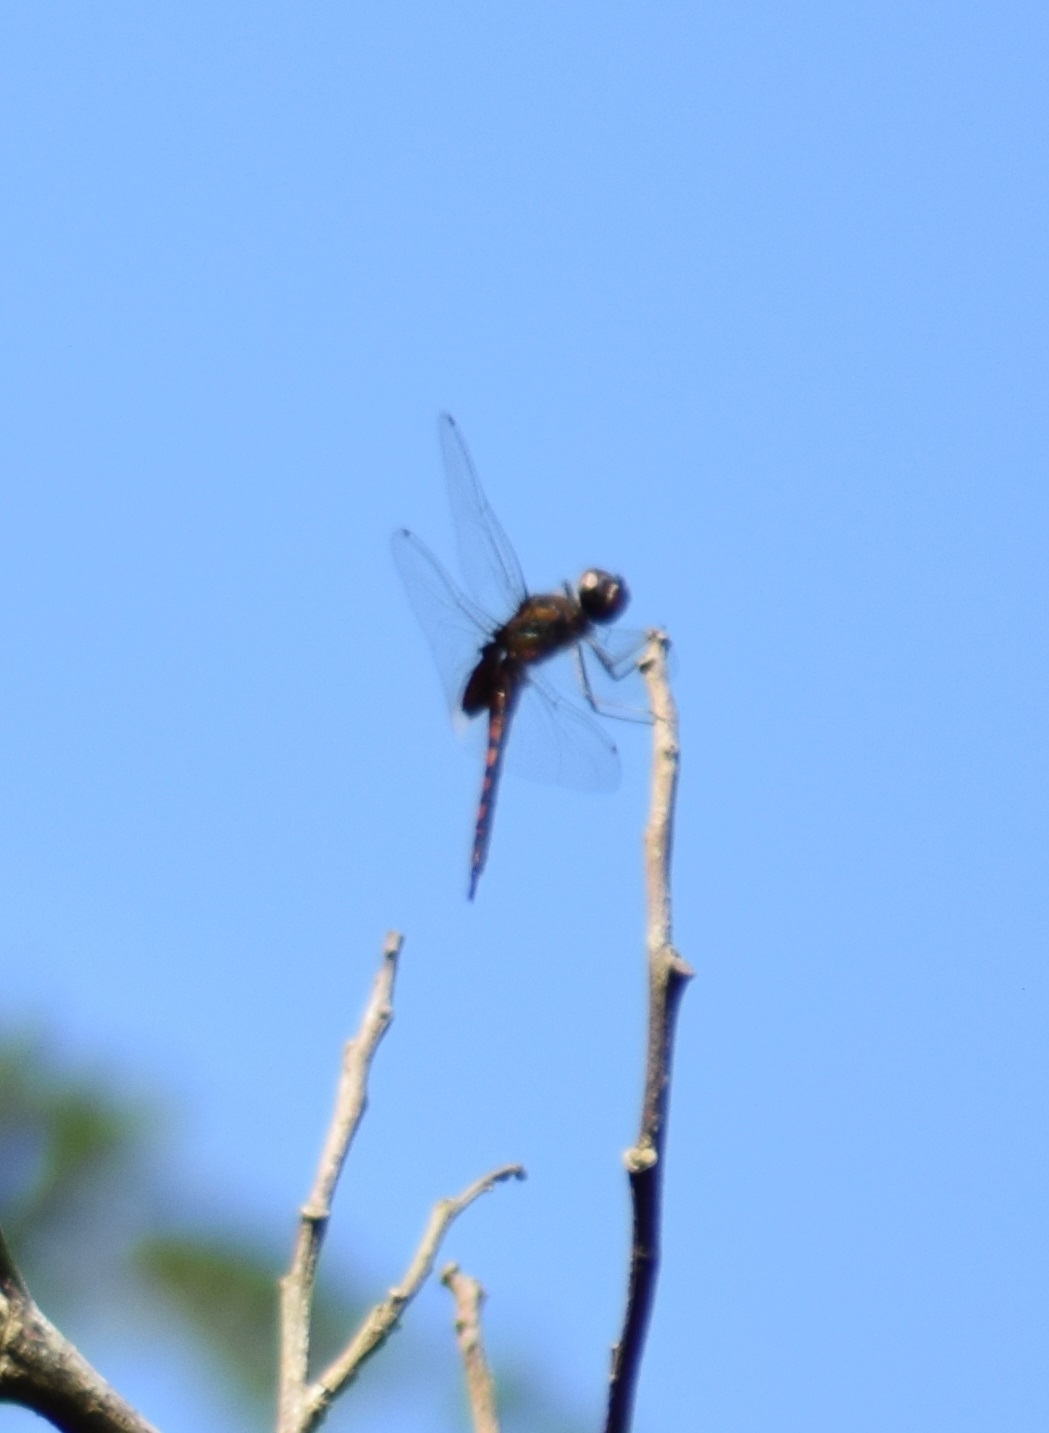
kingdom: Animalia
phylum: Arthropoda
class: Insecta
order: Odonata
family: Libellulidae
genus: Tramea
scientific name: Tramea limbata
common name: Ferruginous glider
